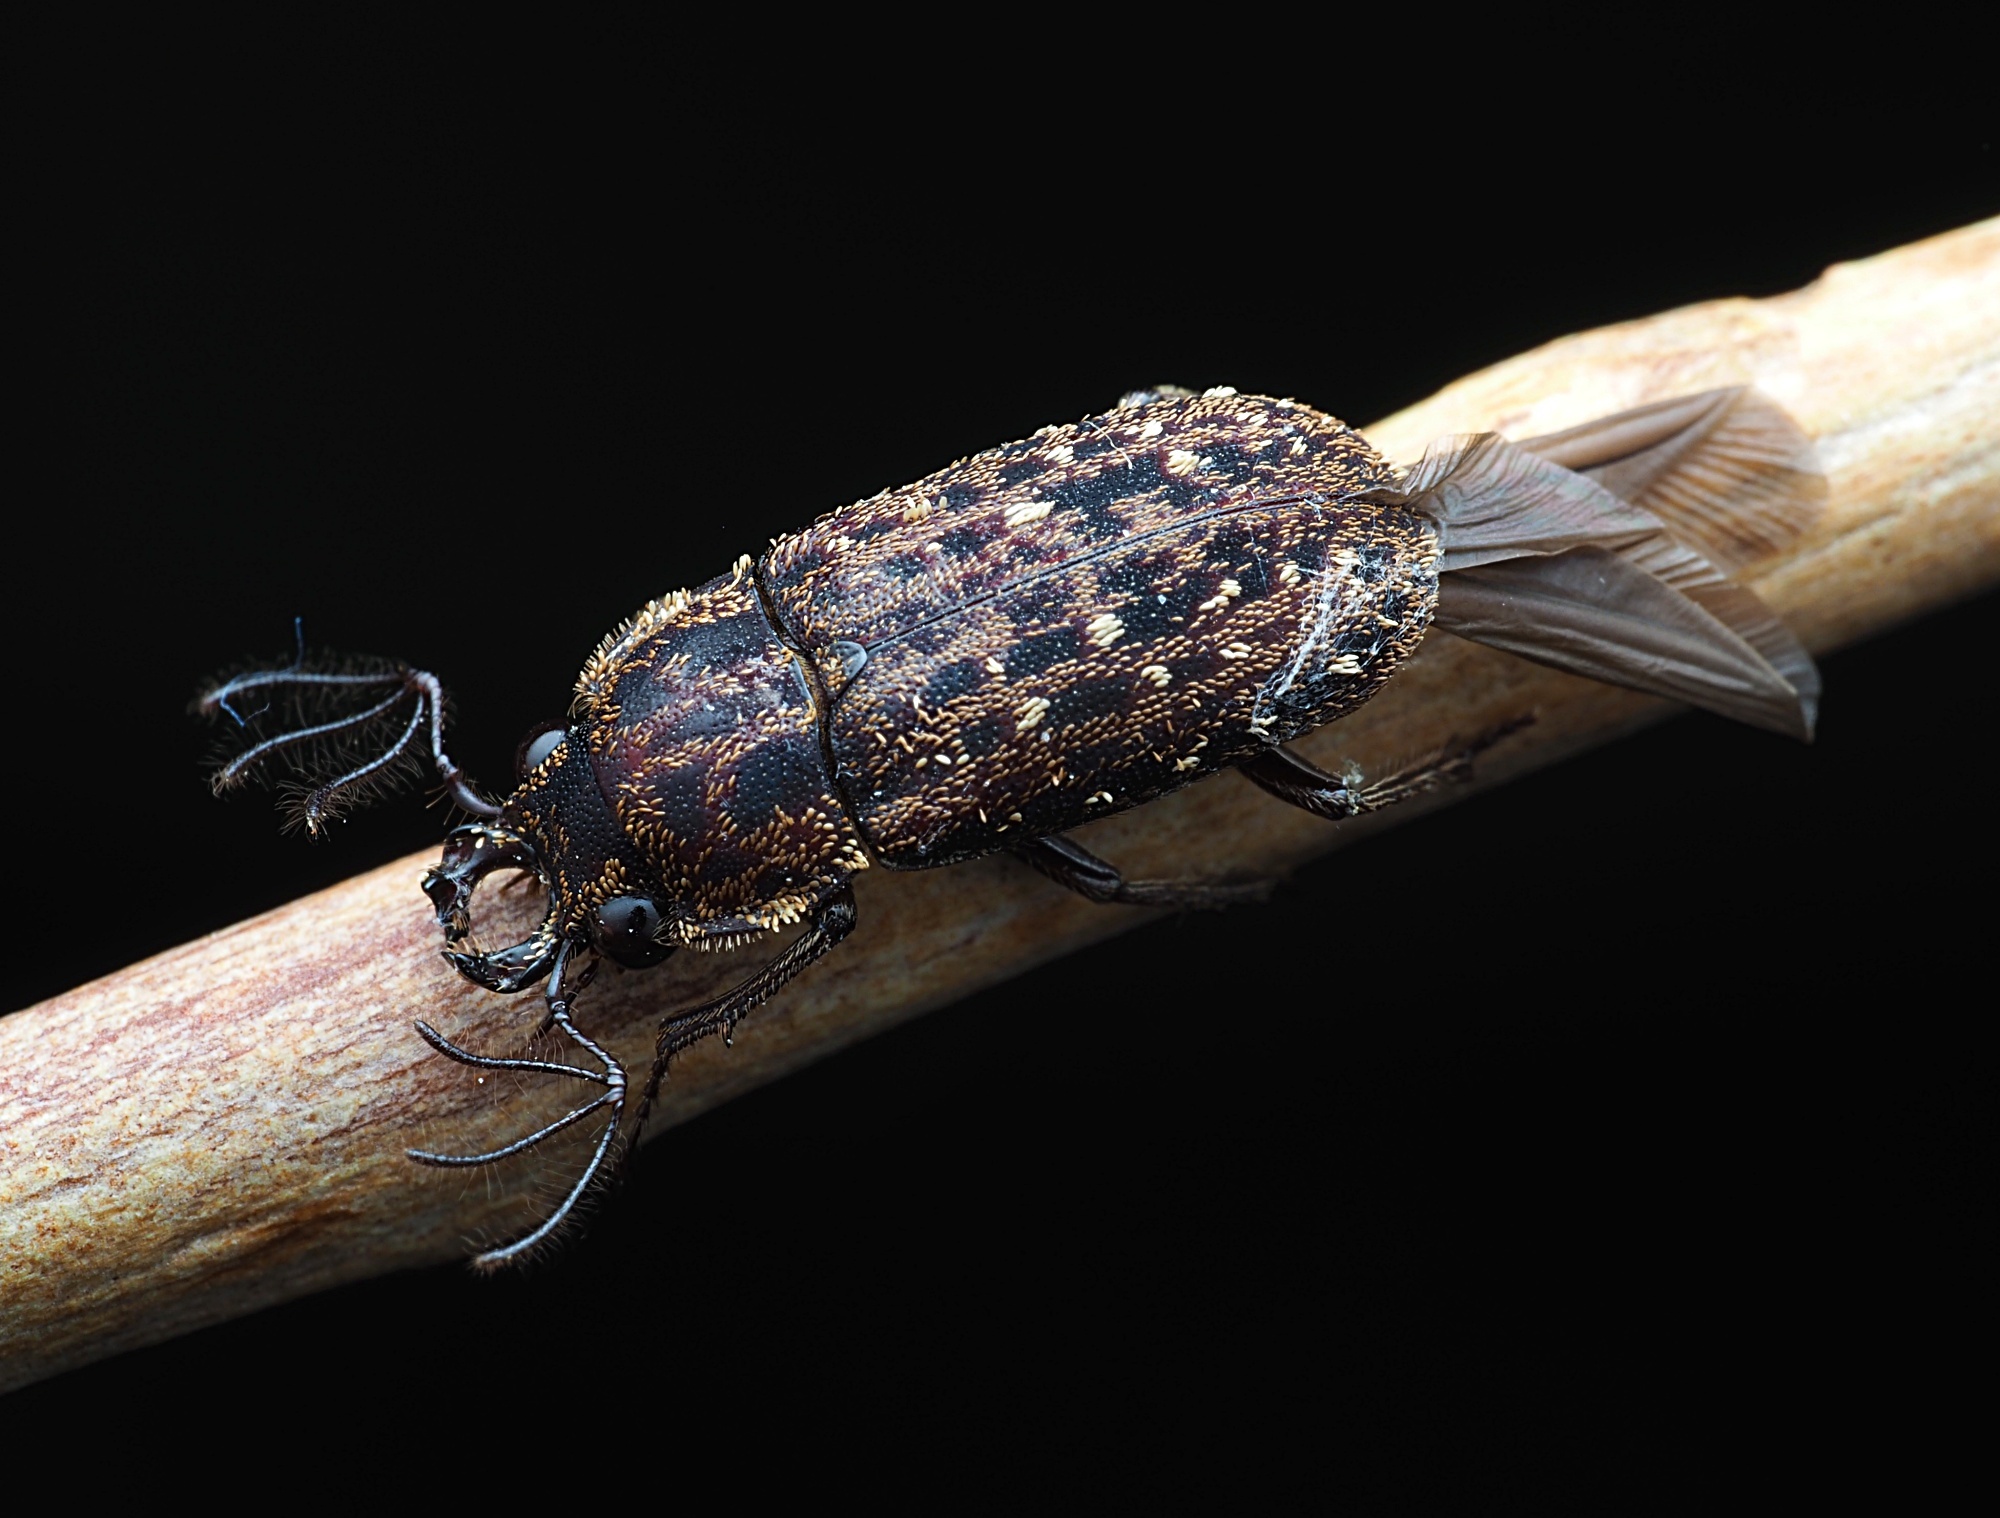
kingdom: Animalia
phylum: Arthropoda
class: Insecta
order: Coleoptera
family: Lucanidae
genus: Mitophyllus
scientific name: Mitophyllus arcuatus
